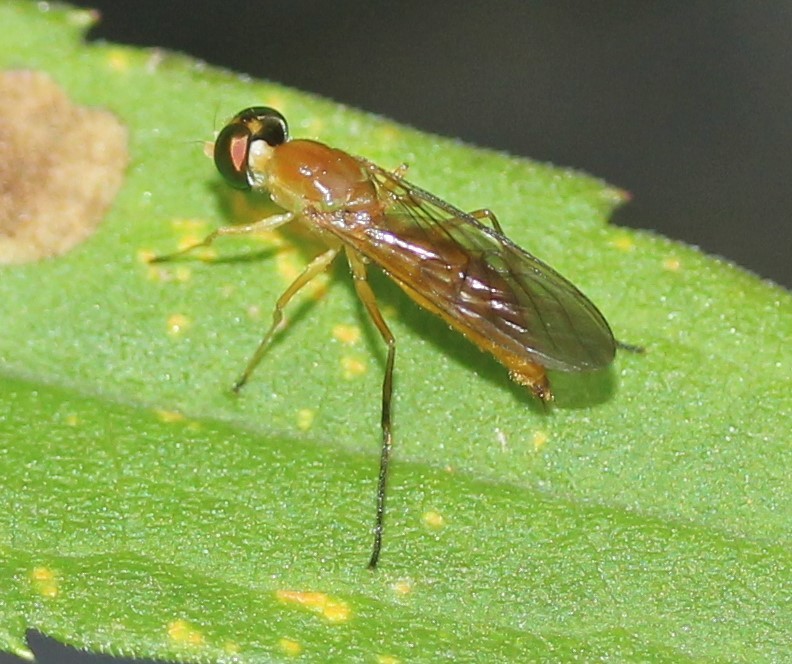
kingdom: Animalia
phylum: Arthropoda
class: Insecta
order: Diptera
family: Stratiomyidae
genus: Ptecticus
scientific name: Ptecticus trivittatus
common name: Compost fly
